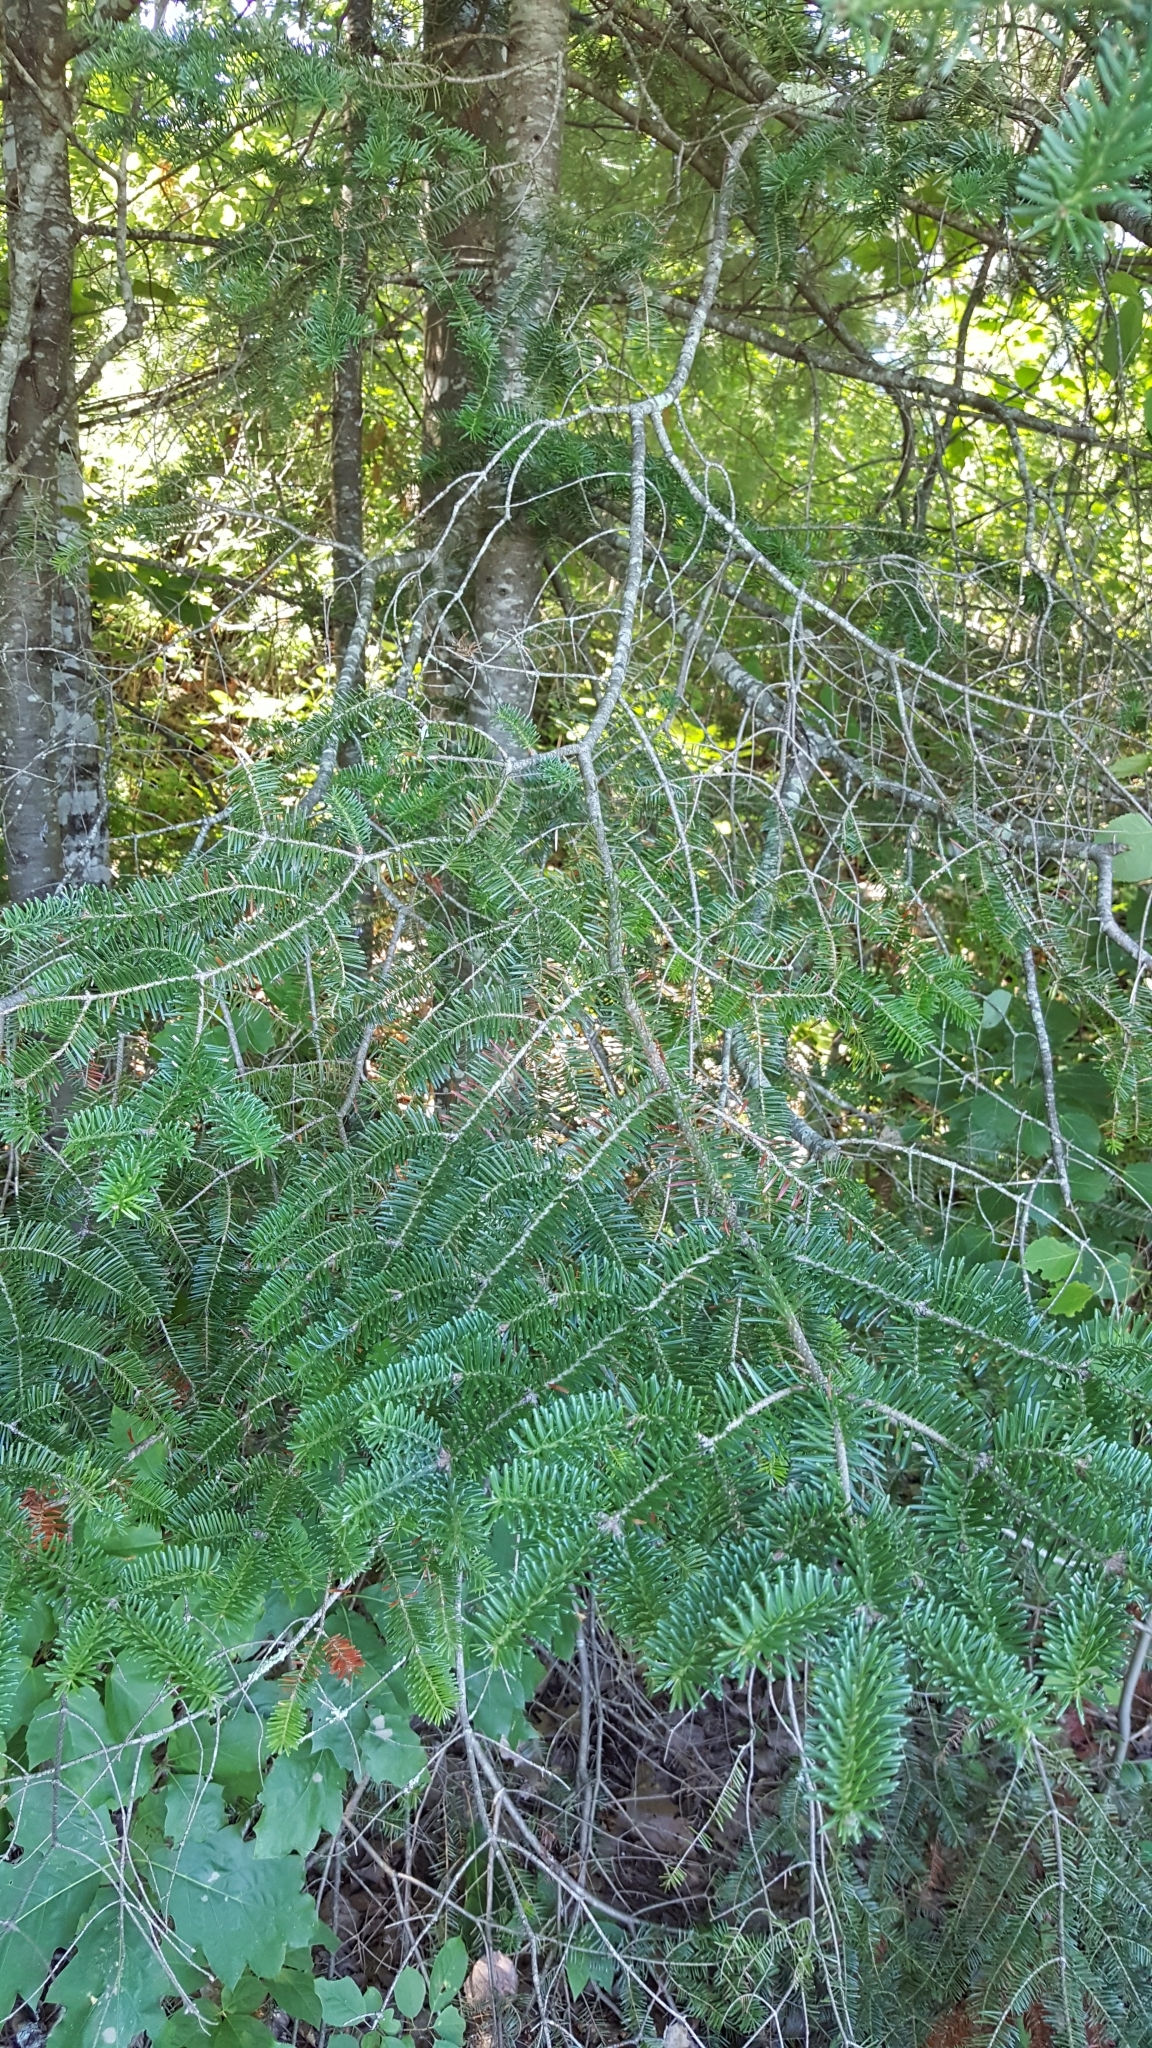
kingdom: Plantae
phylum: Tracheophyta
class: Pinopsida
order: Pinales
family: Pinaceae
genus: Abies
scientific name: Abies balsamea
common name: Balsam fir
